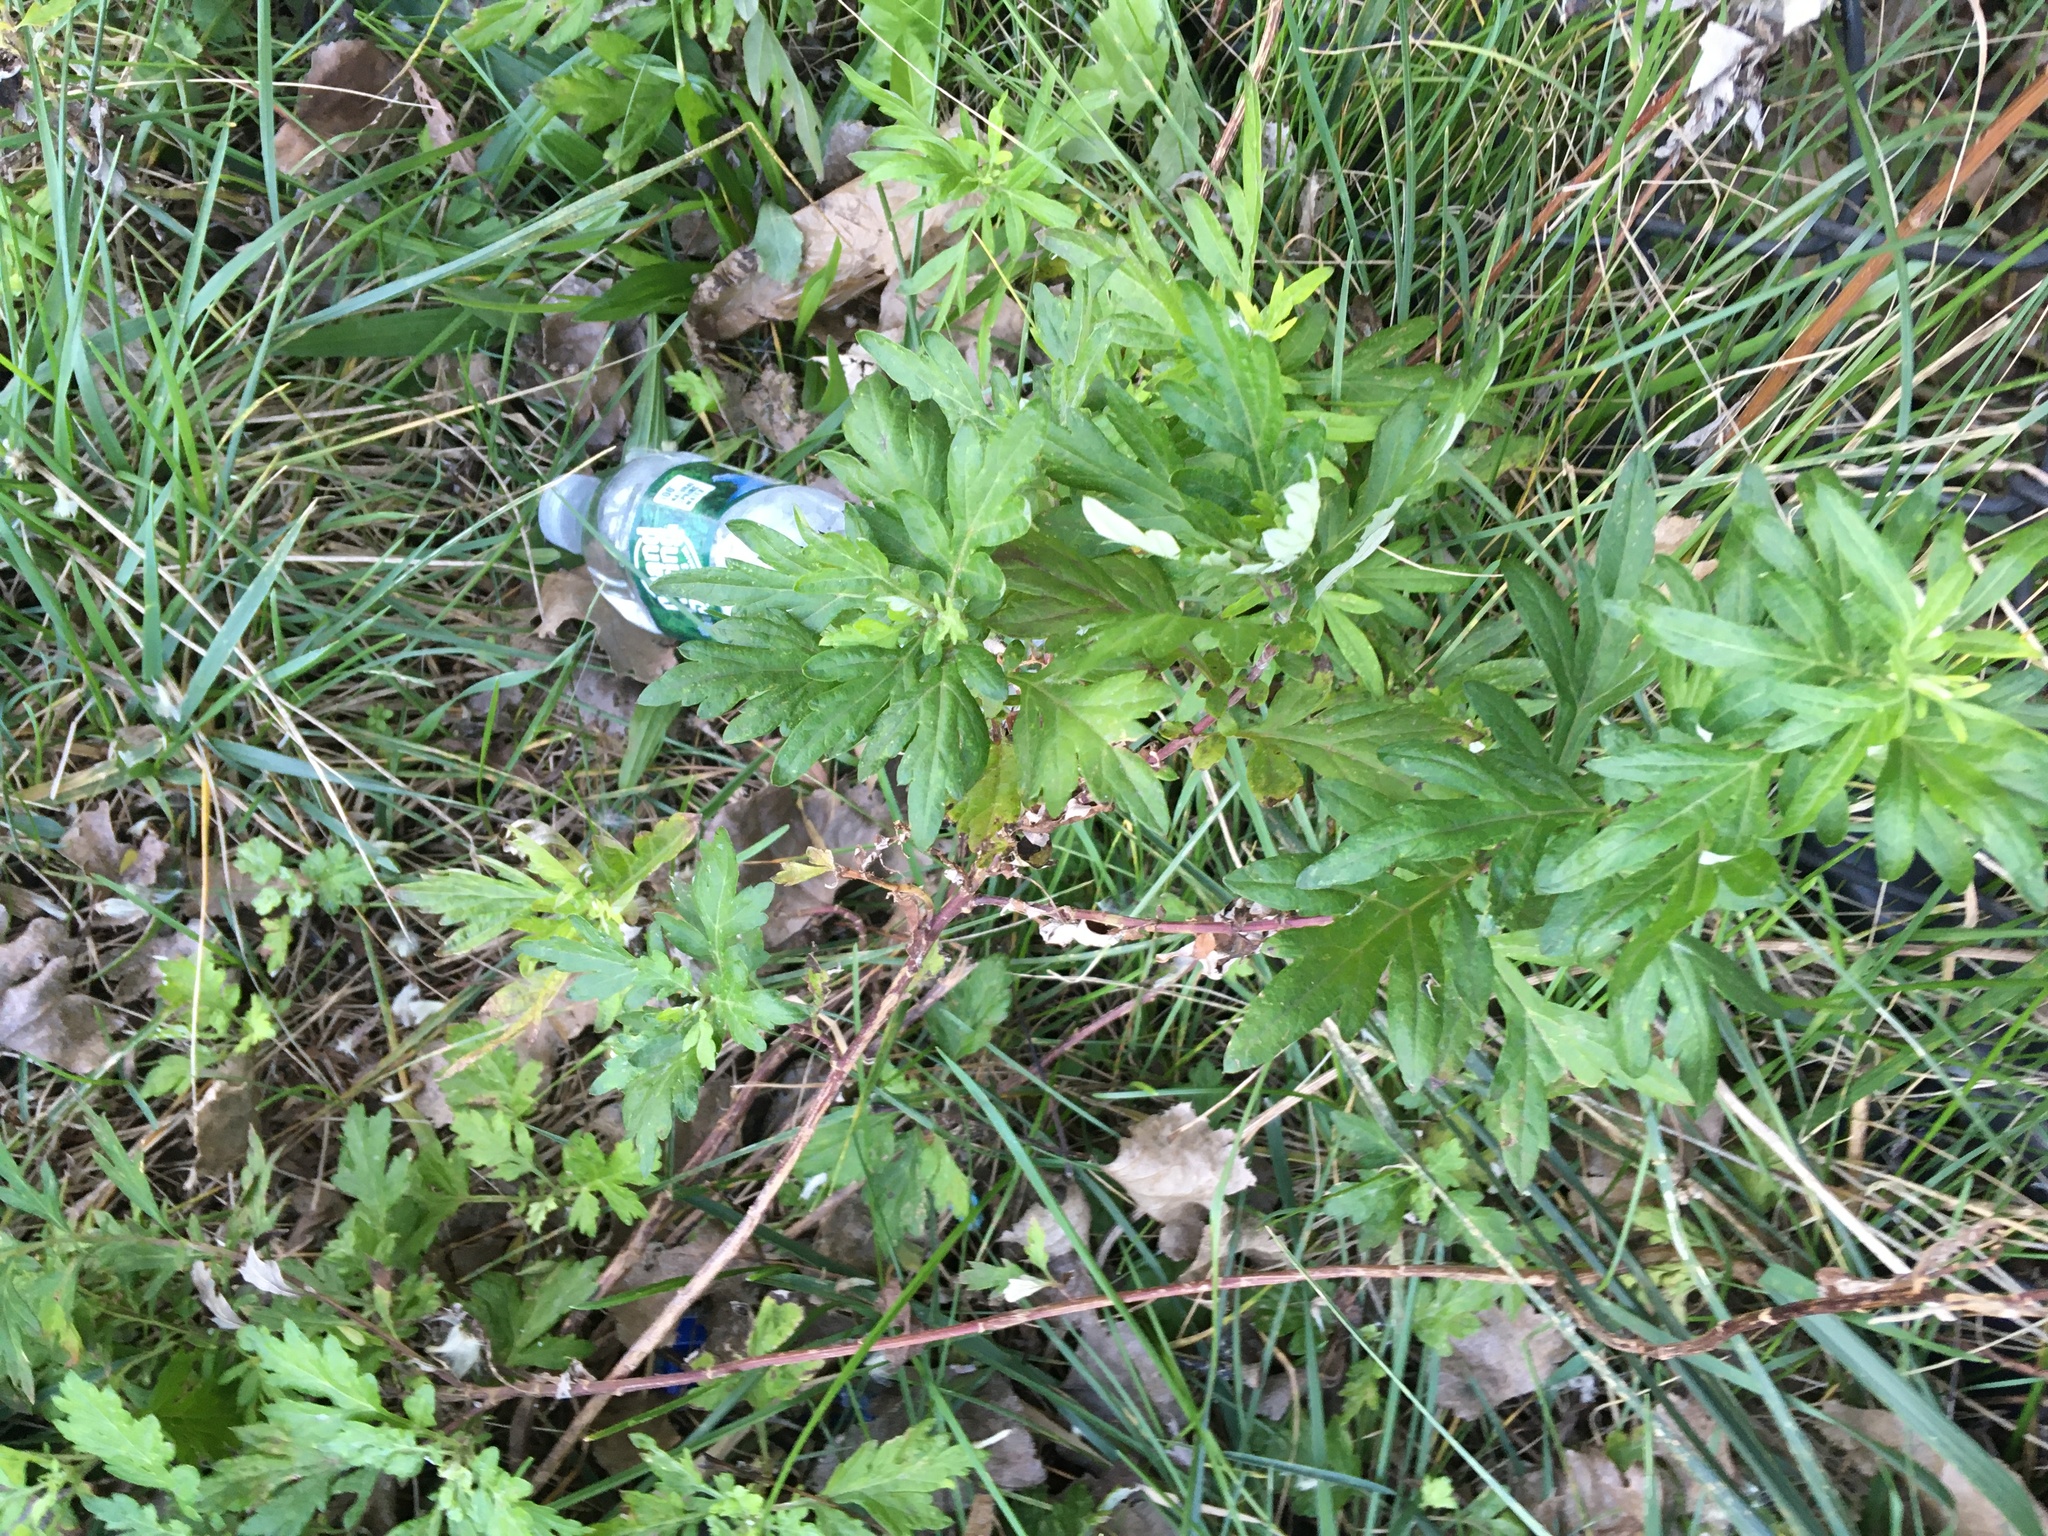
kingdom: Plantae
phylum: Tracheophyta
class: Magnoliopsida
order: Asterales
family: Asteraceae
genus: Artemisia
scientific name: Artemisia vulgaris
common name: Mugwort
